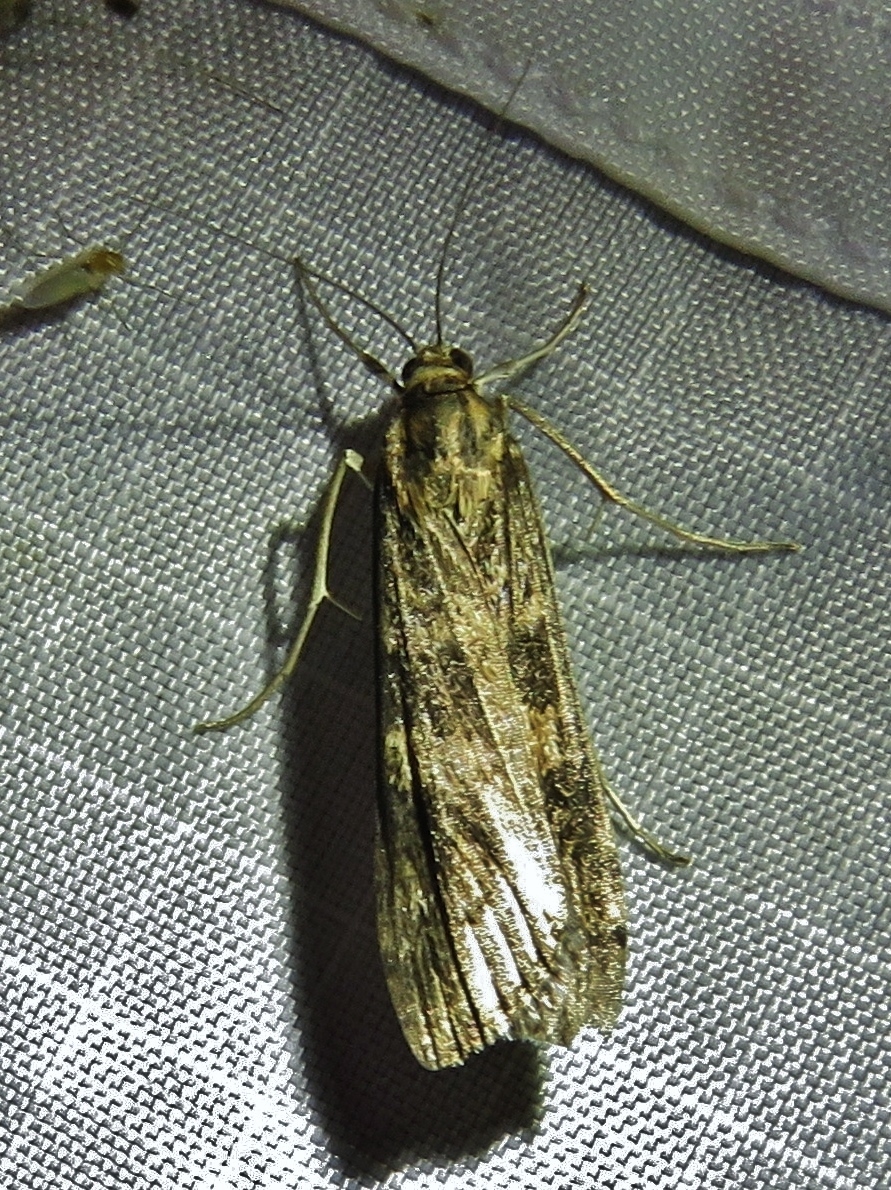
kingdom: Animalia
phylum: Arthropoda
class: Insecta
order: Lepidoptera
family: Crambidae
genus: Nomophila
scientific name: Nomophila nearctica
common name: American rush veneer
